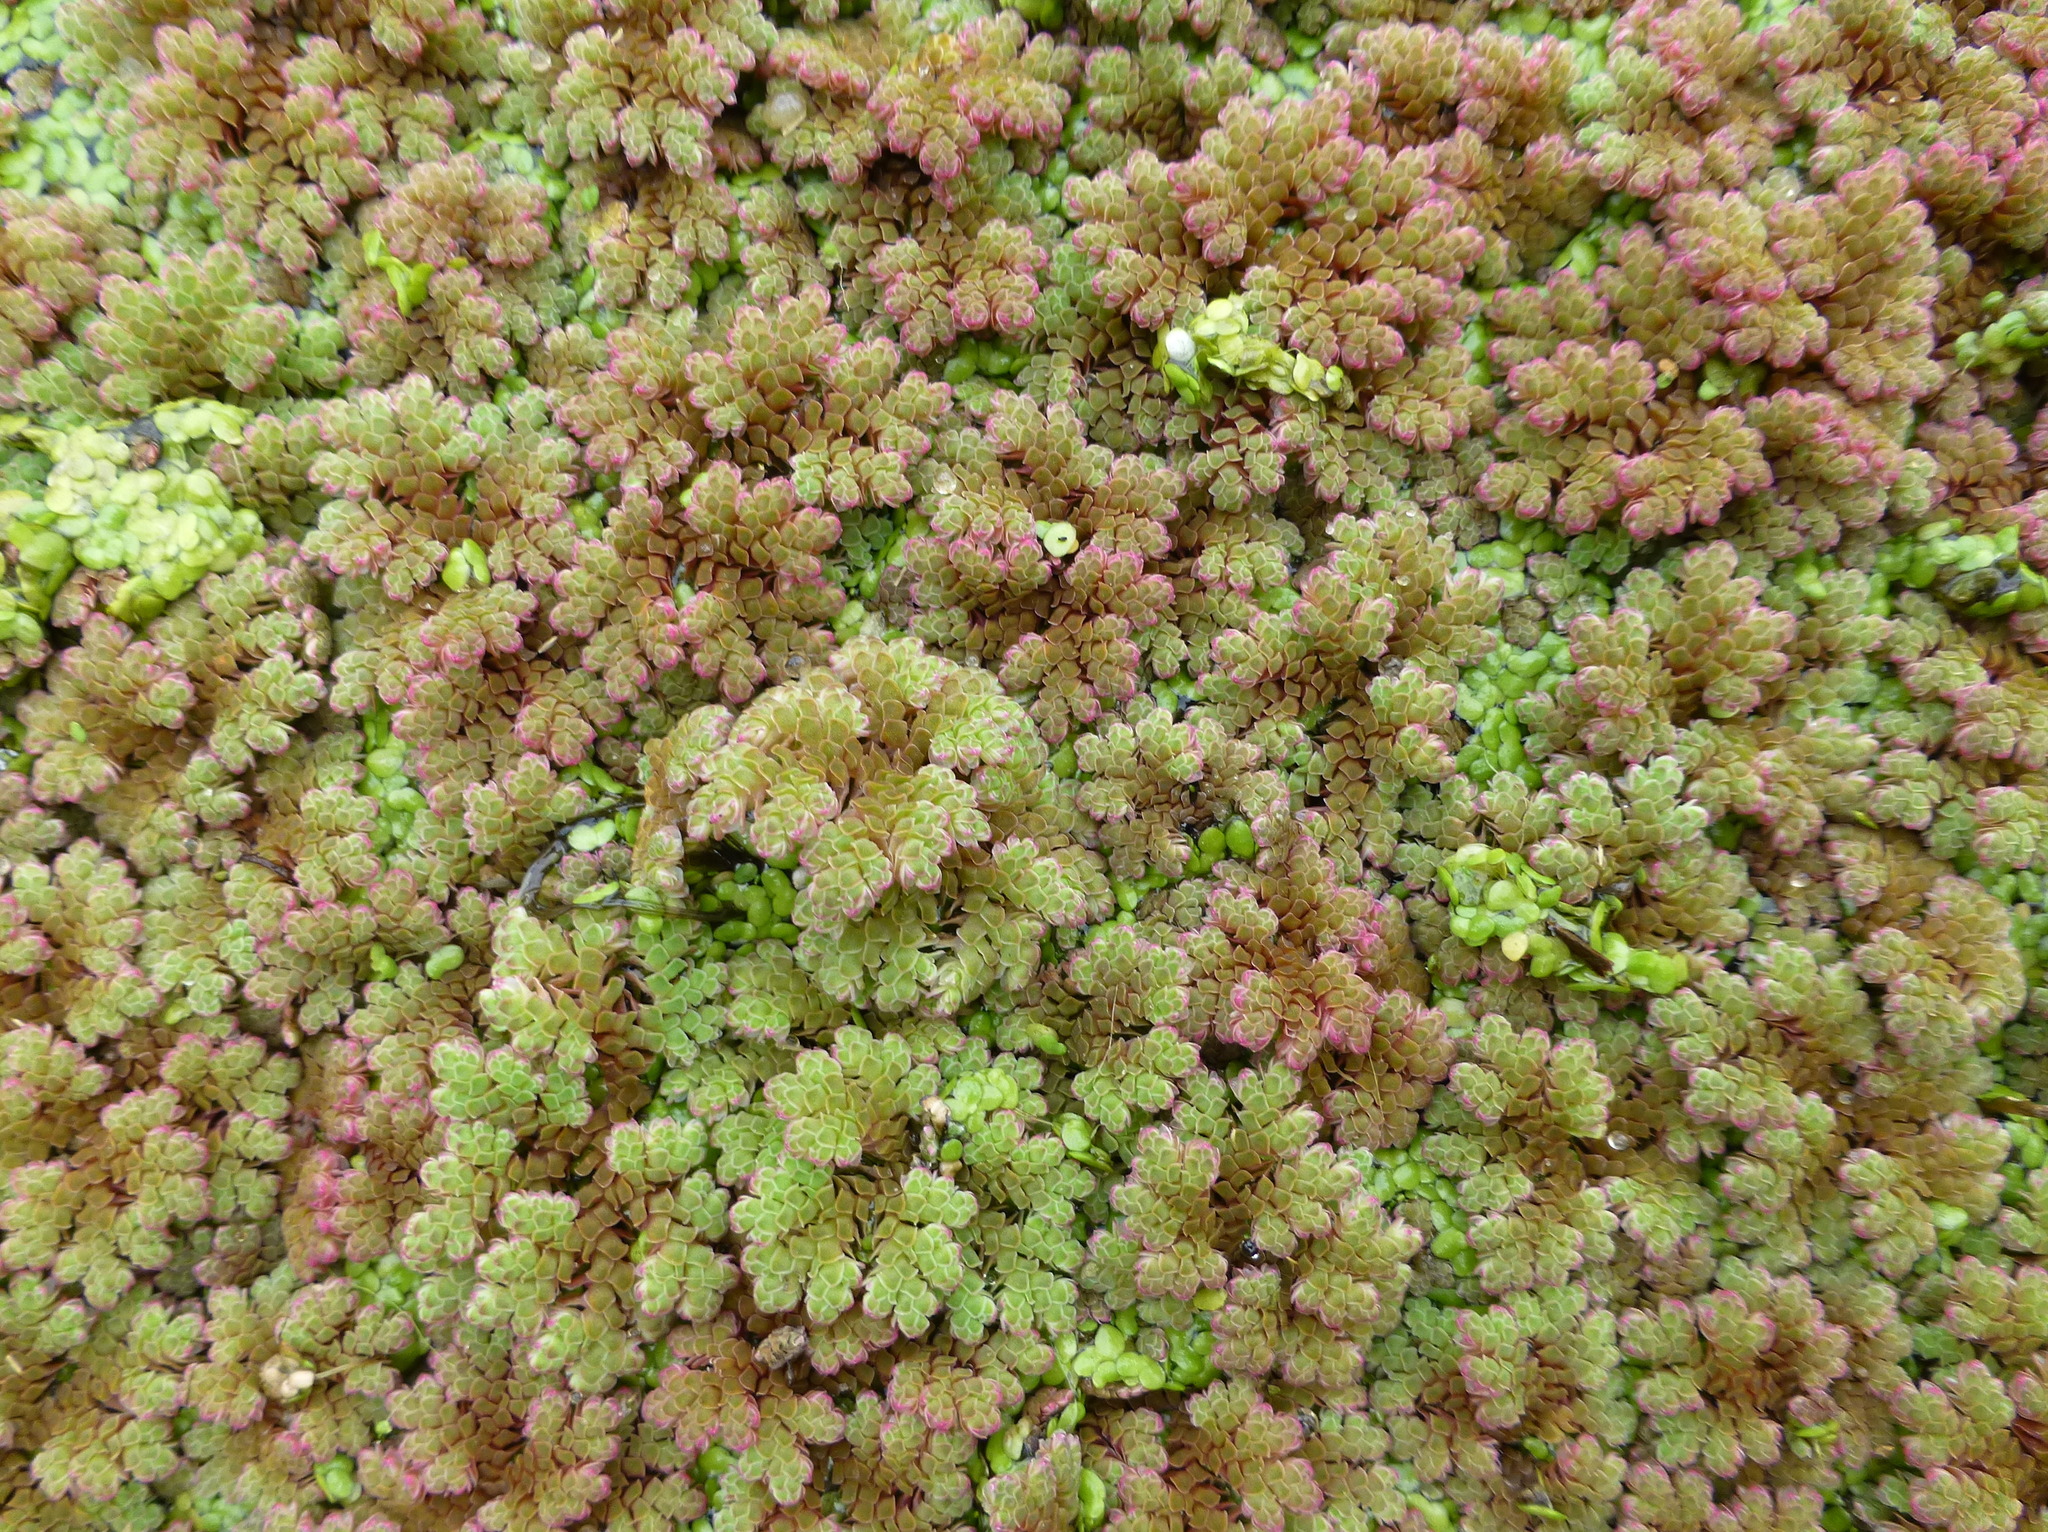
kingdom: Plantae
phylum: Tracheophyta
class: Polypodiopsida
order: Salviniales
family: Salviniaceae
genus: Azolla
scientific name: Azolla rubra
